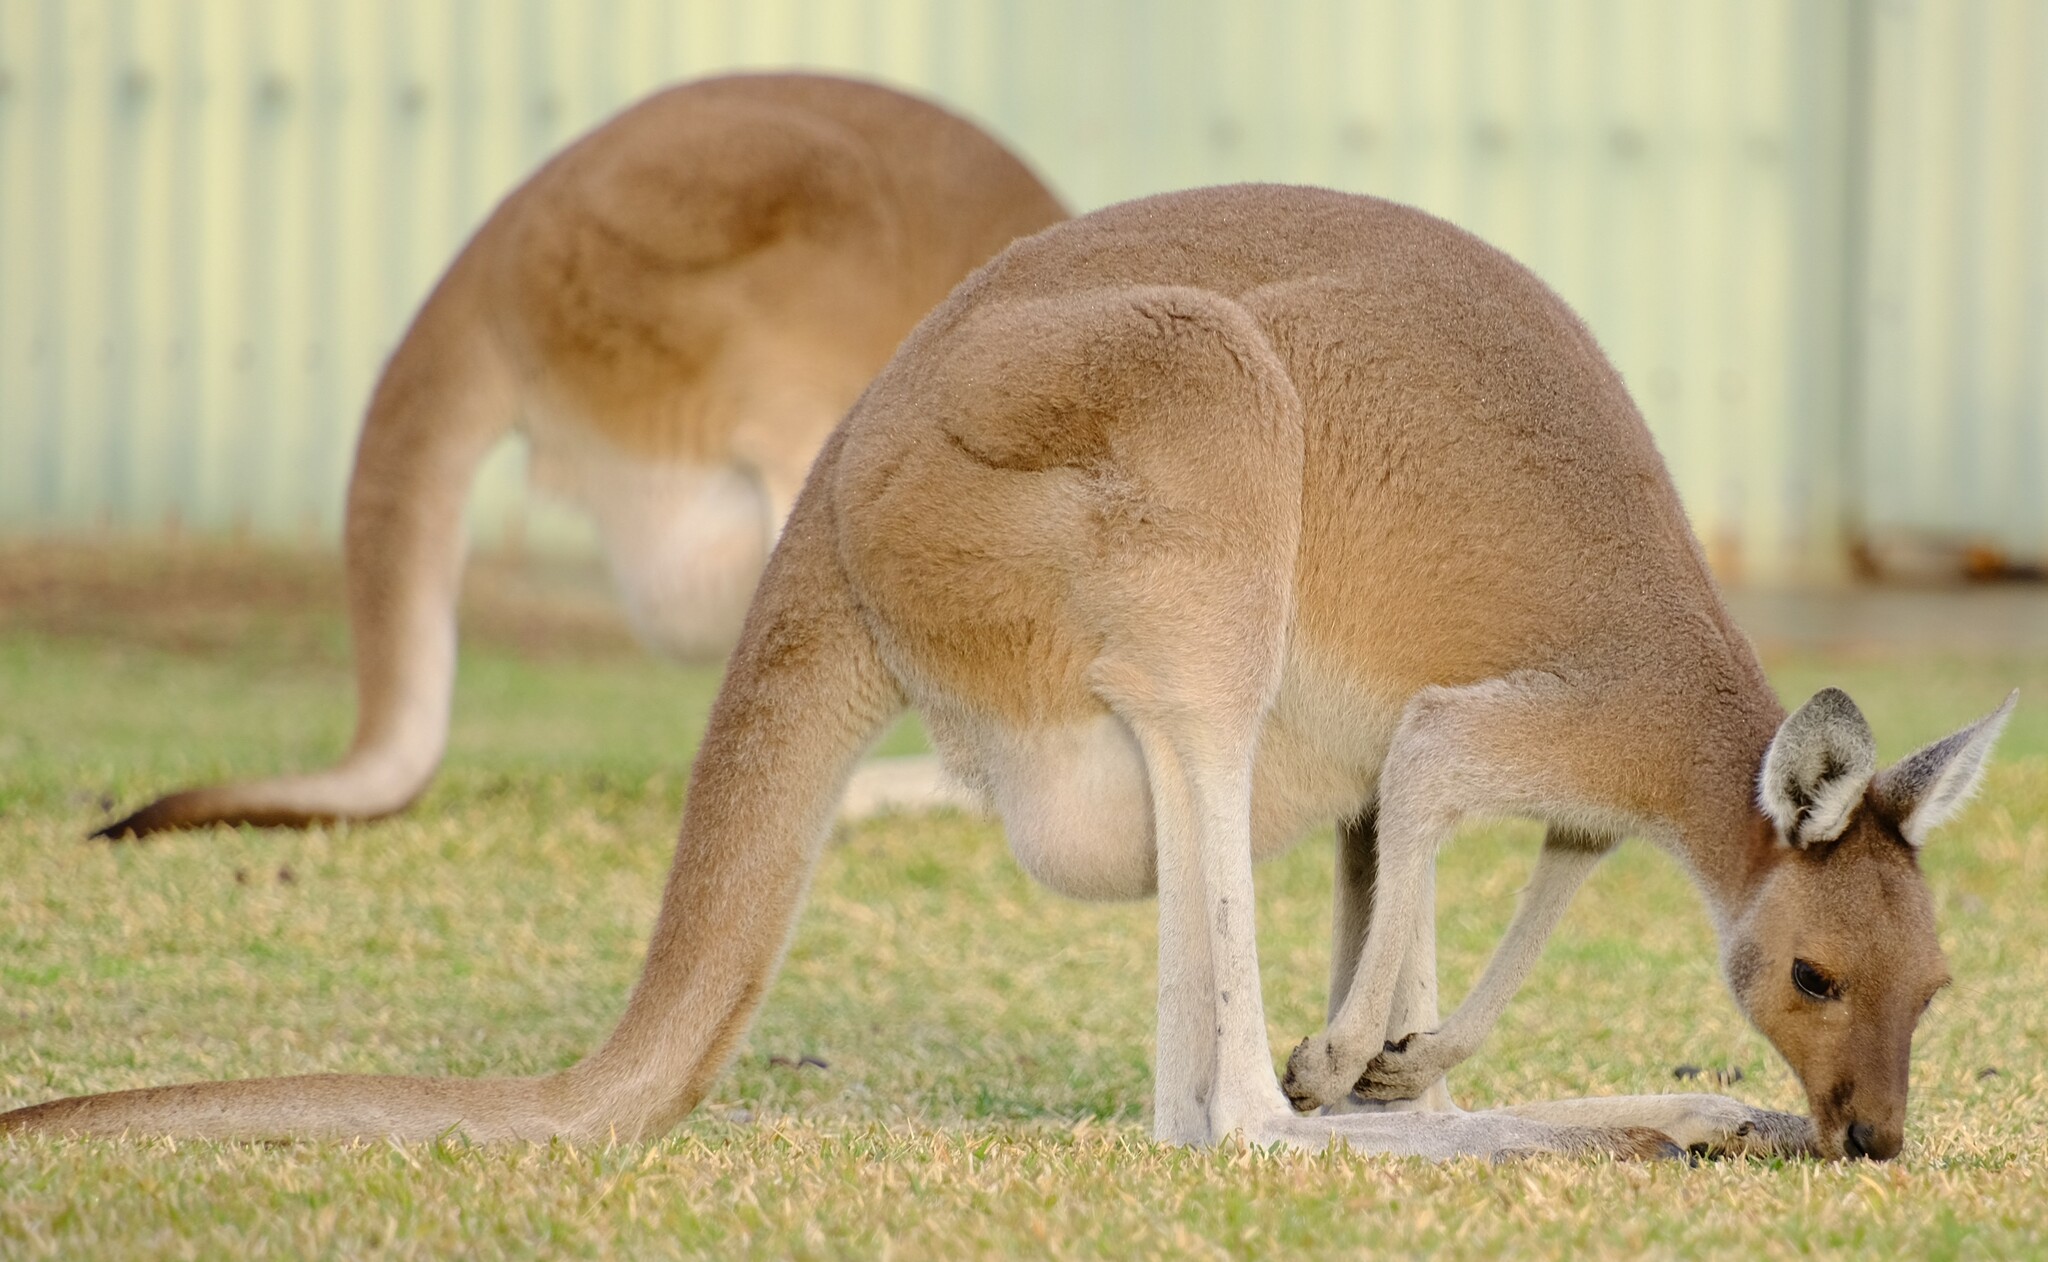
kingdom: Animalia
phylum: Chordata
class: Mammalia
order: Diprotodontia
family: Macropodidae
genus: Macropus
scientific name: Macropus fuliginosus
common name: Western grey kangaroo
